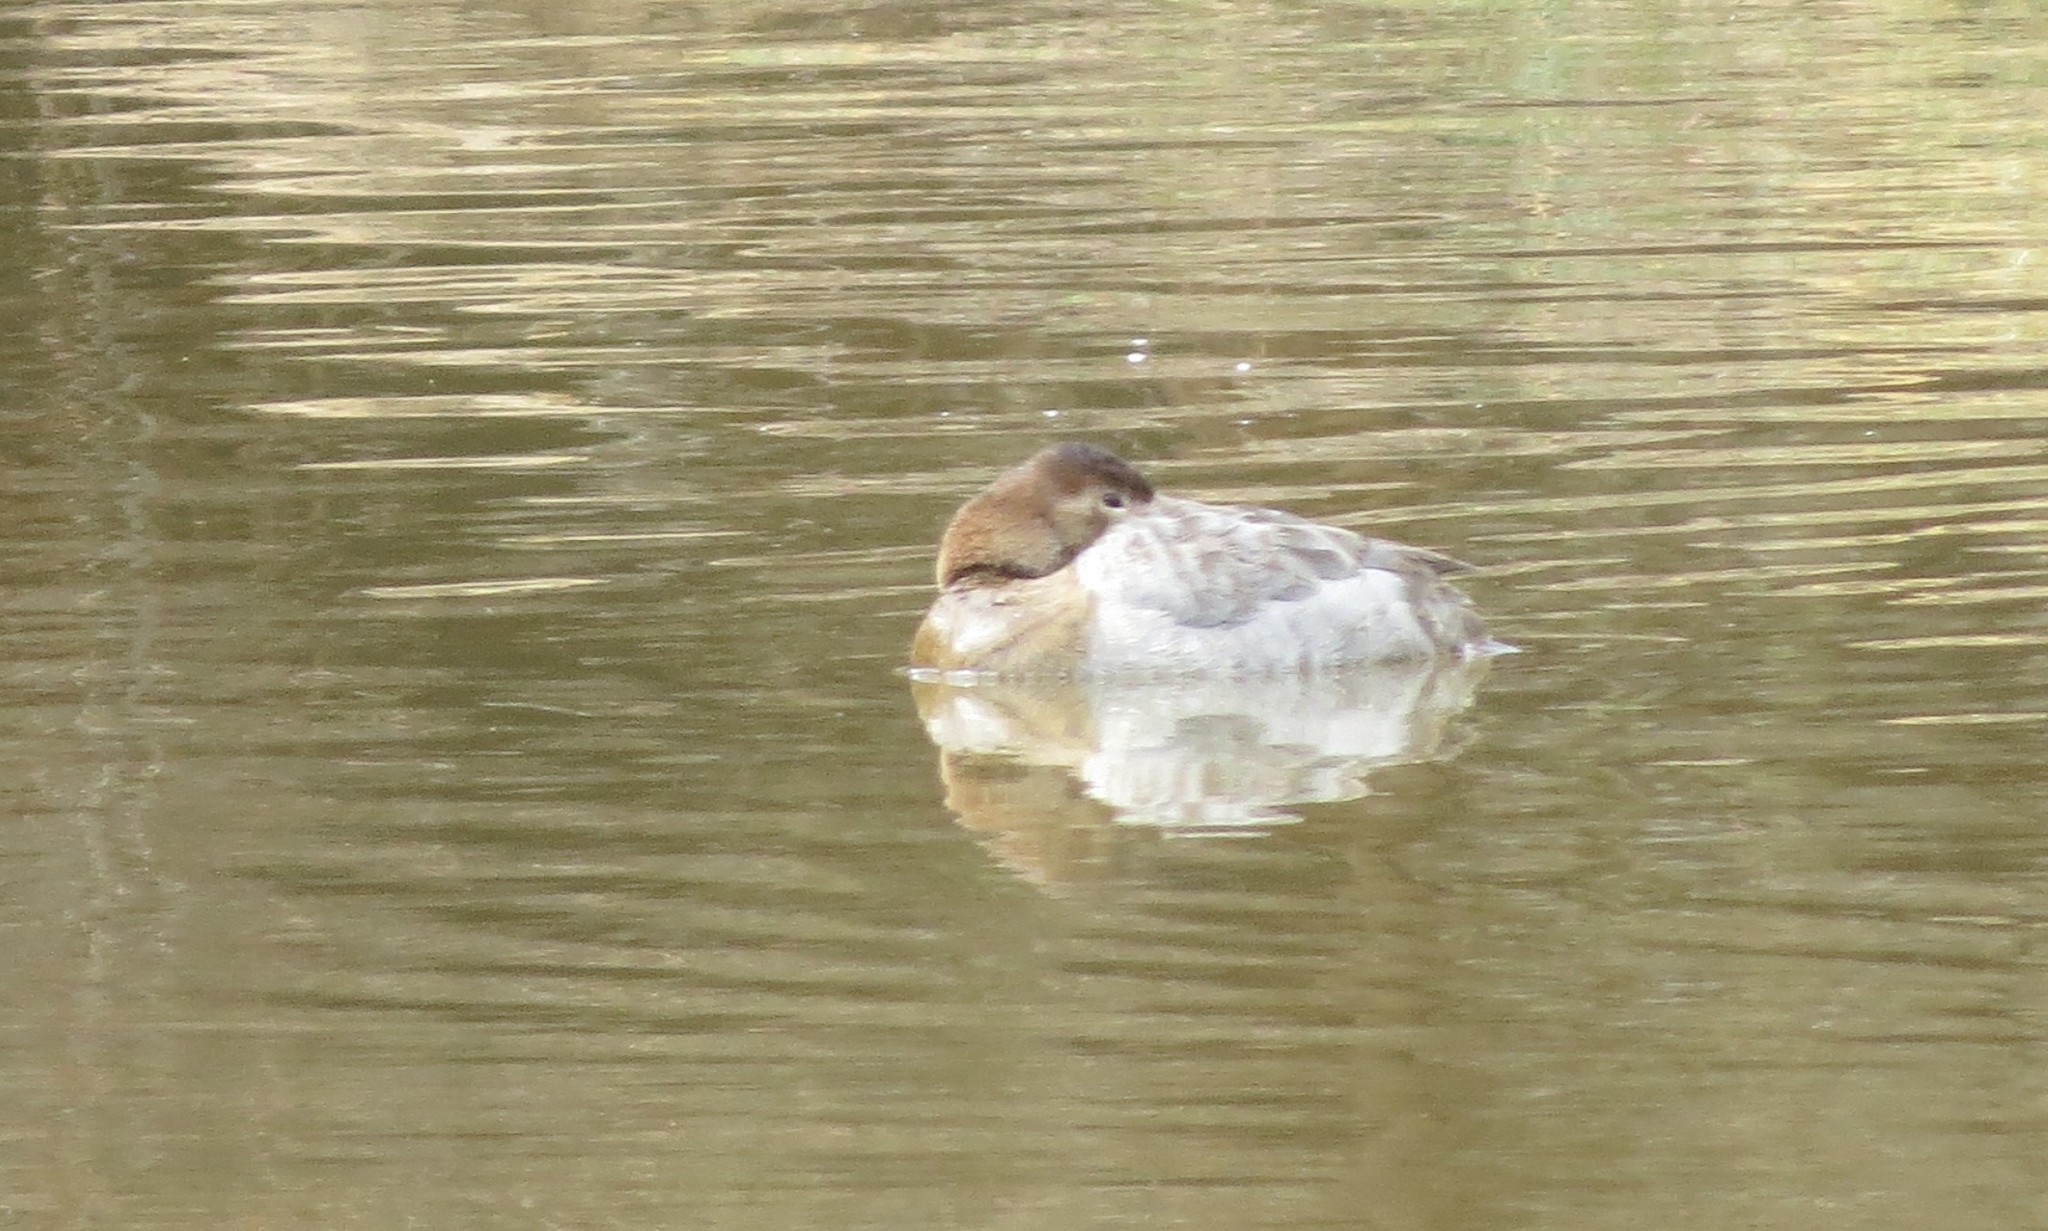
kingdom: Animalia
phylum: Chordata
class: Aves
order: Anseriformes
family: Anatidae
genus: Aythya
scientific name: Aythya valisineria
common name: Canvasback
